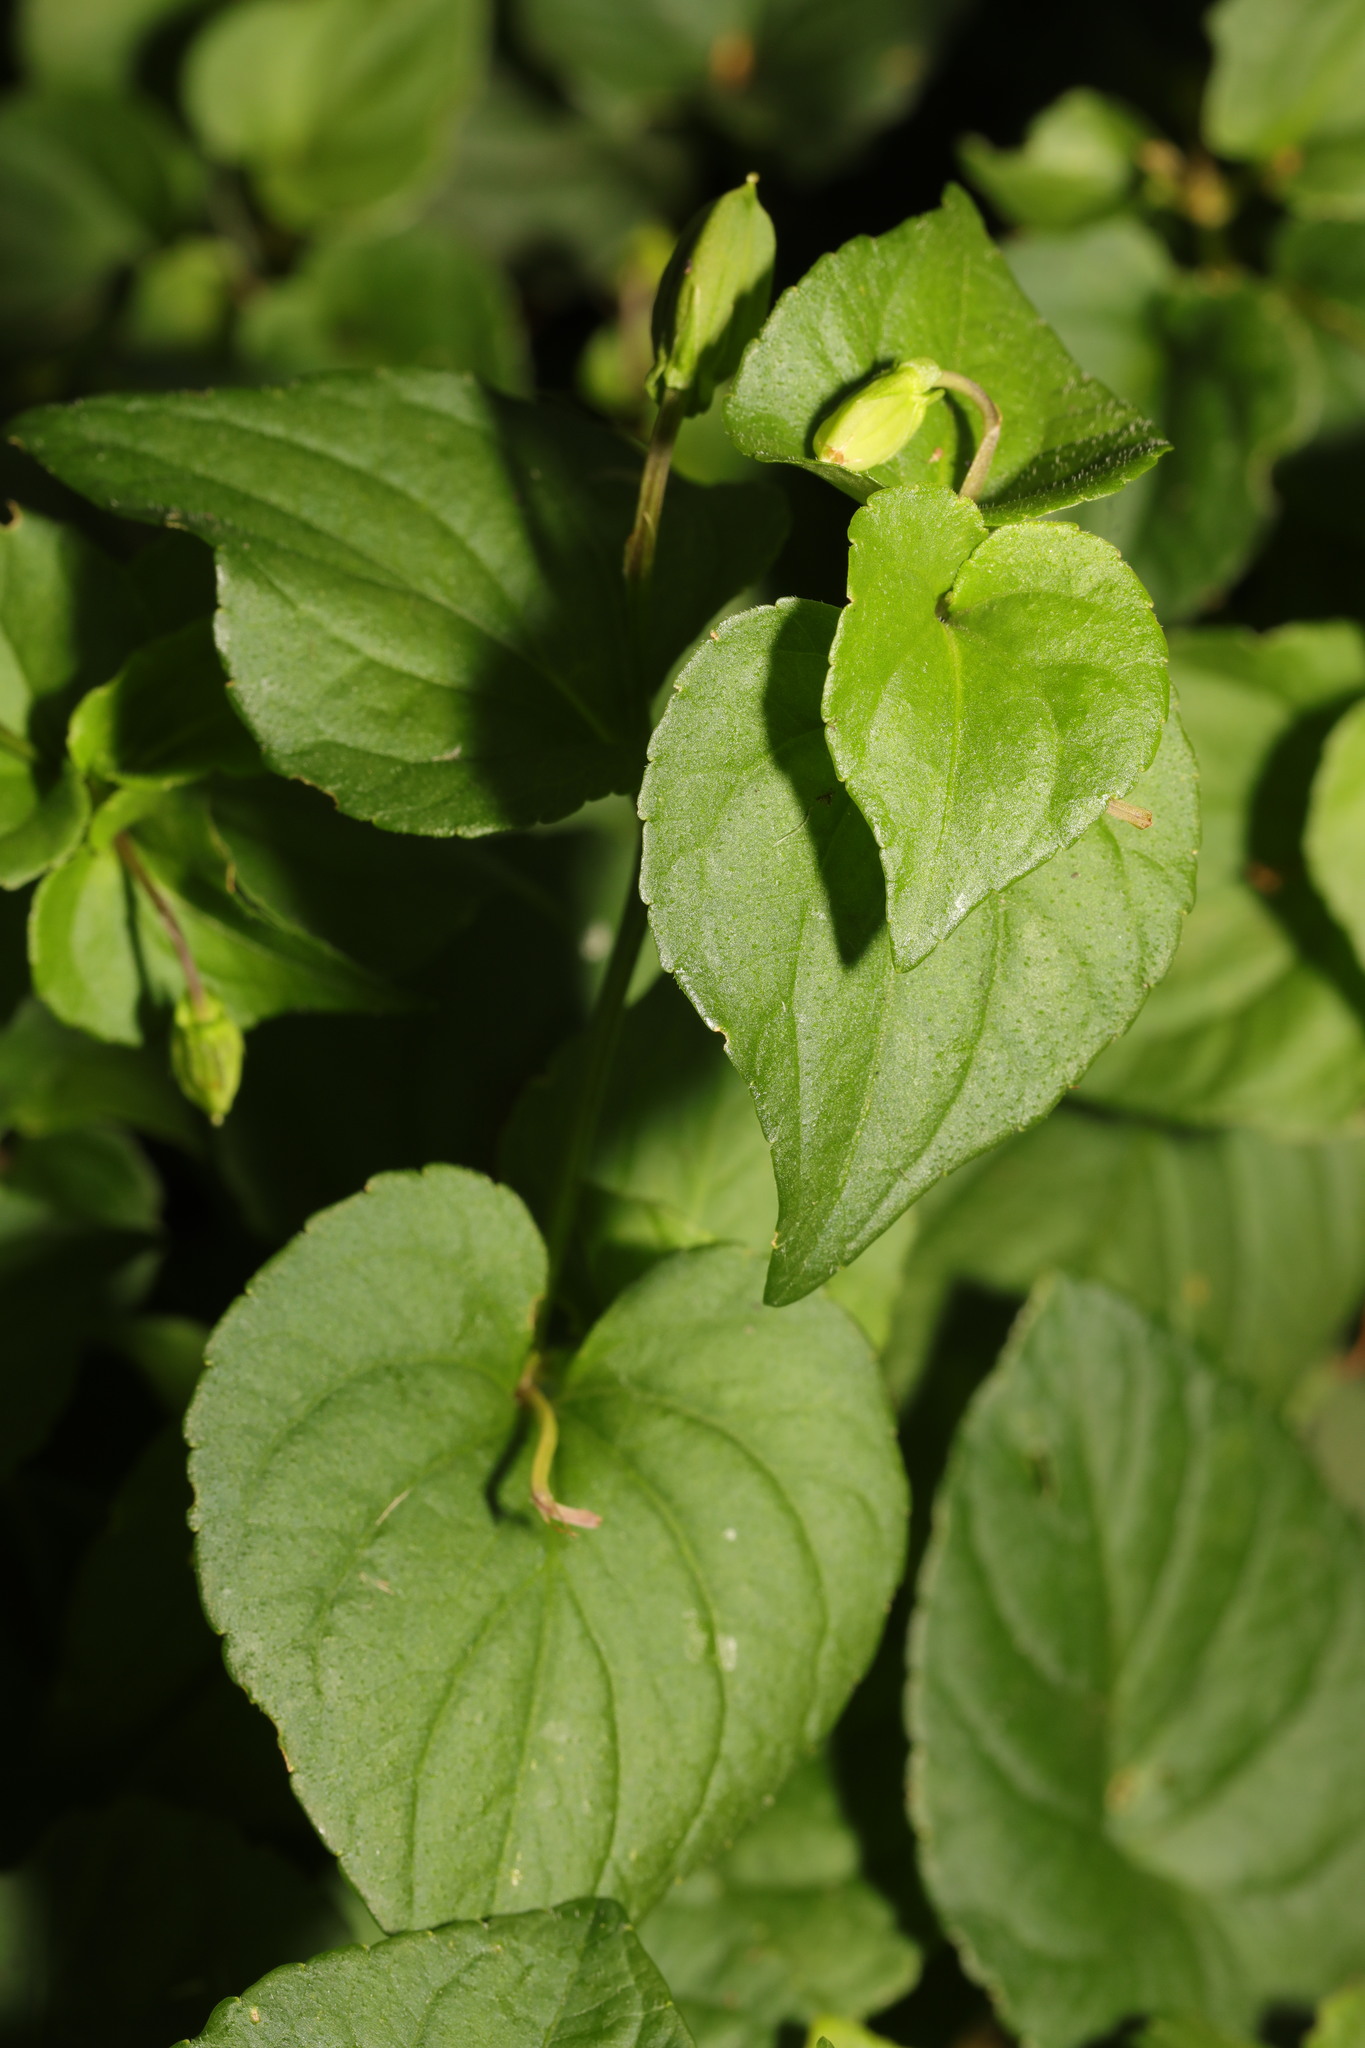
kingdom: Plantae
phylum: Tracheophyta
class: Magnoliopsida
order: Malpighiales
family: Violaceae
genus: Viola
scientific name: Viola riviniana
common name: Common dog-violet
